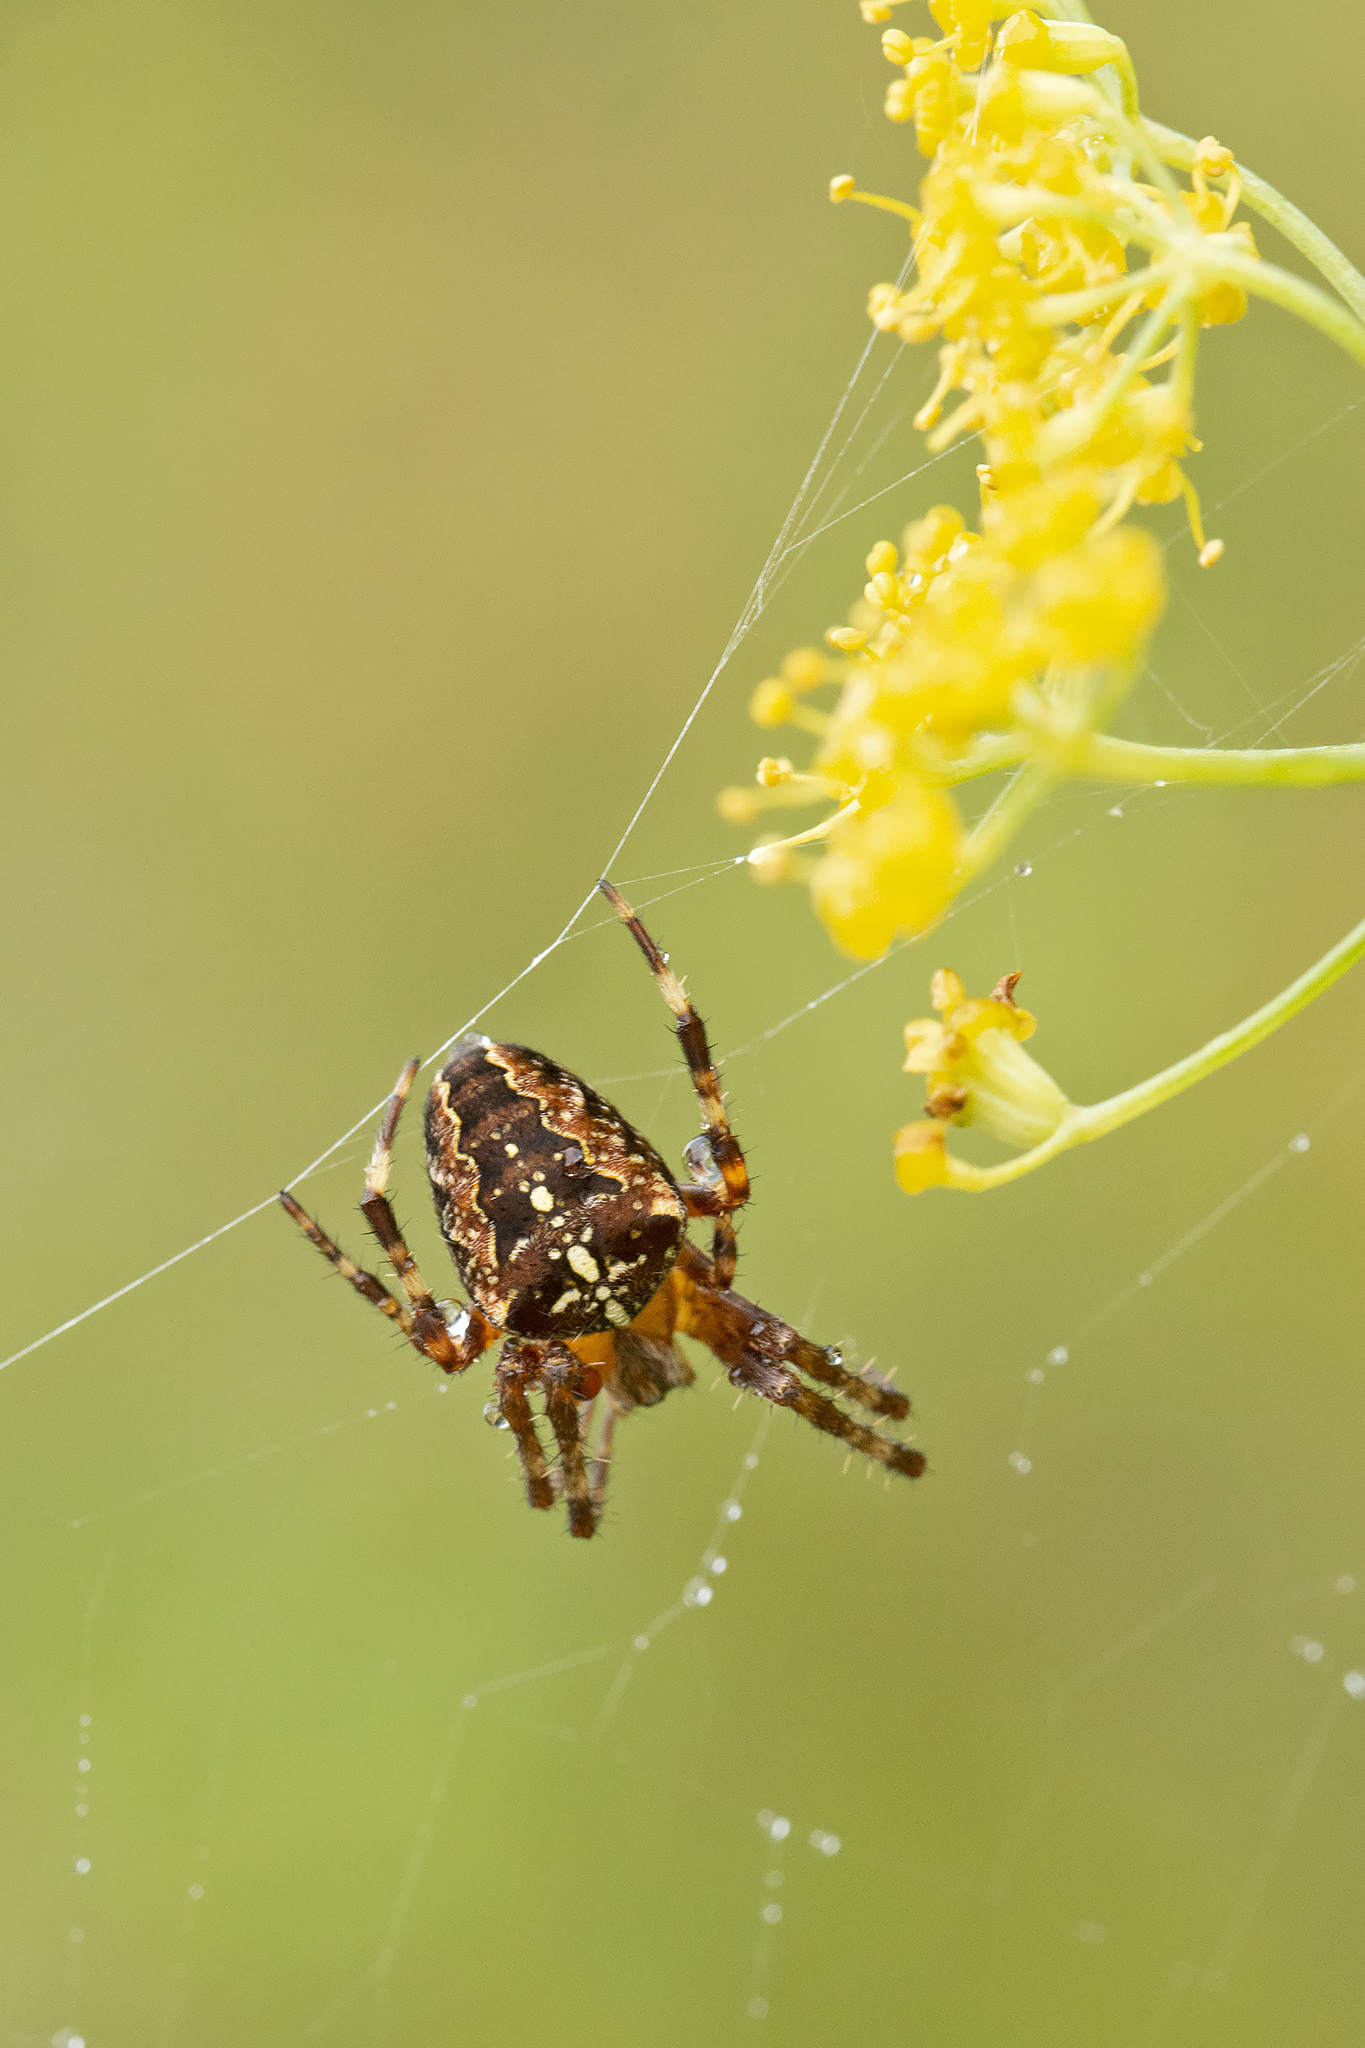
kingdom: Animalia
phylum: Arthropoda
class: Arachnida
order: Araneae
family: Araneidae
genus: Araneus
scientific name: Araneus diadematus
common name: Cross orbweaver
